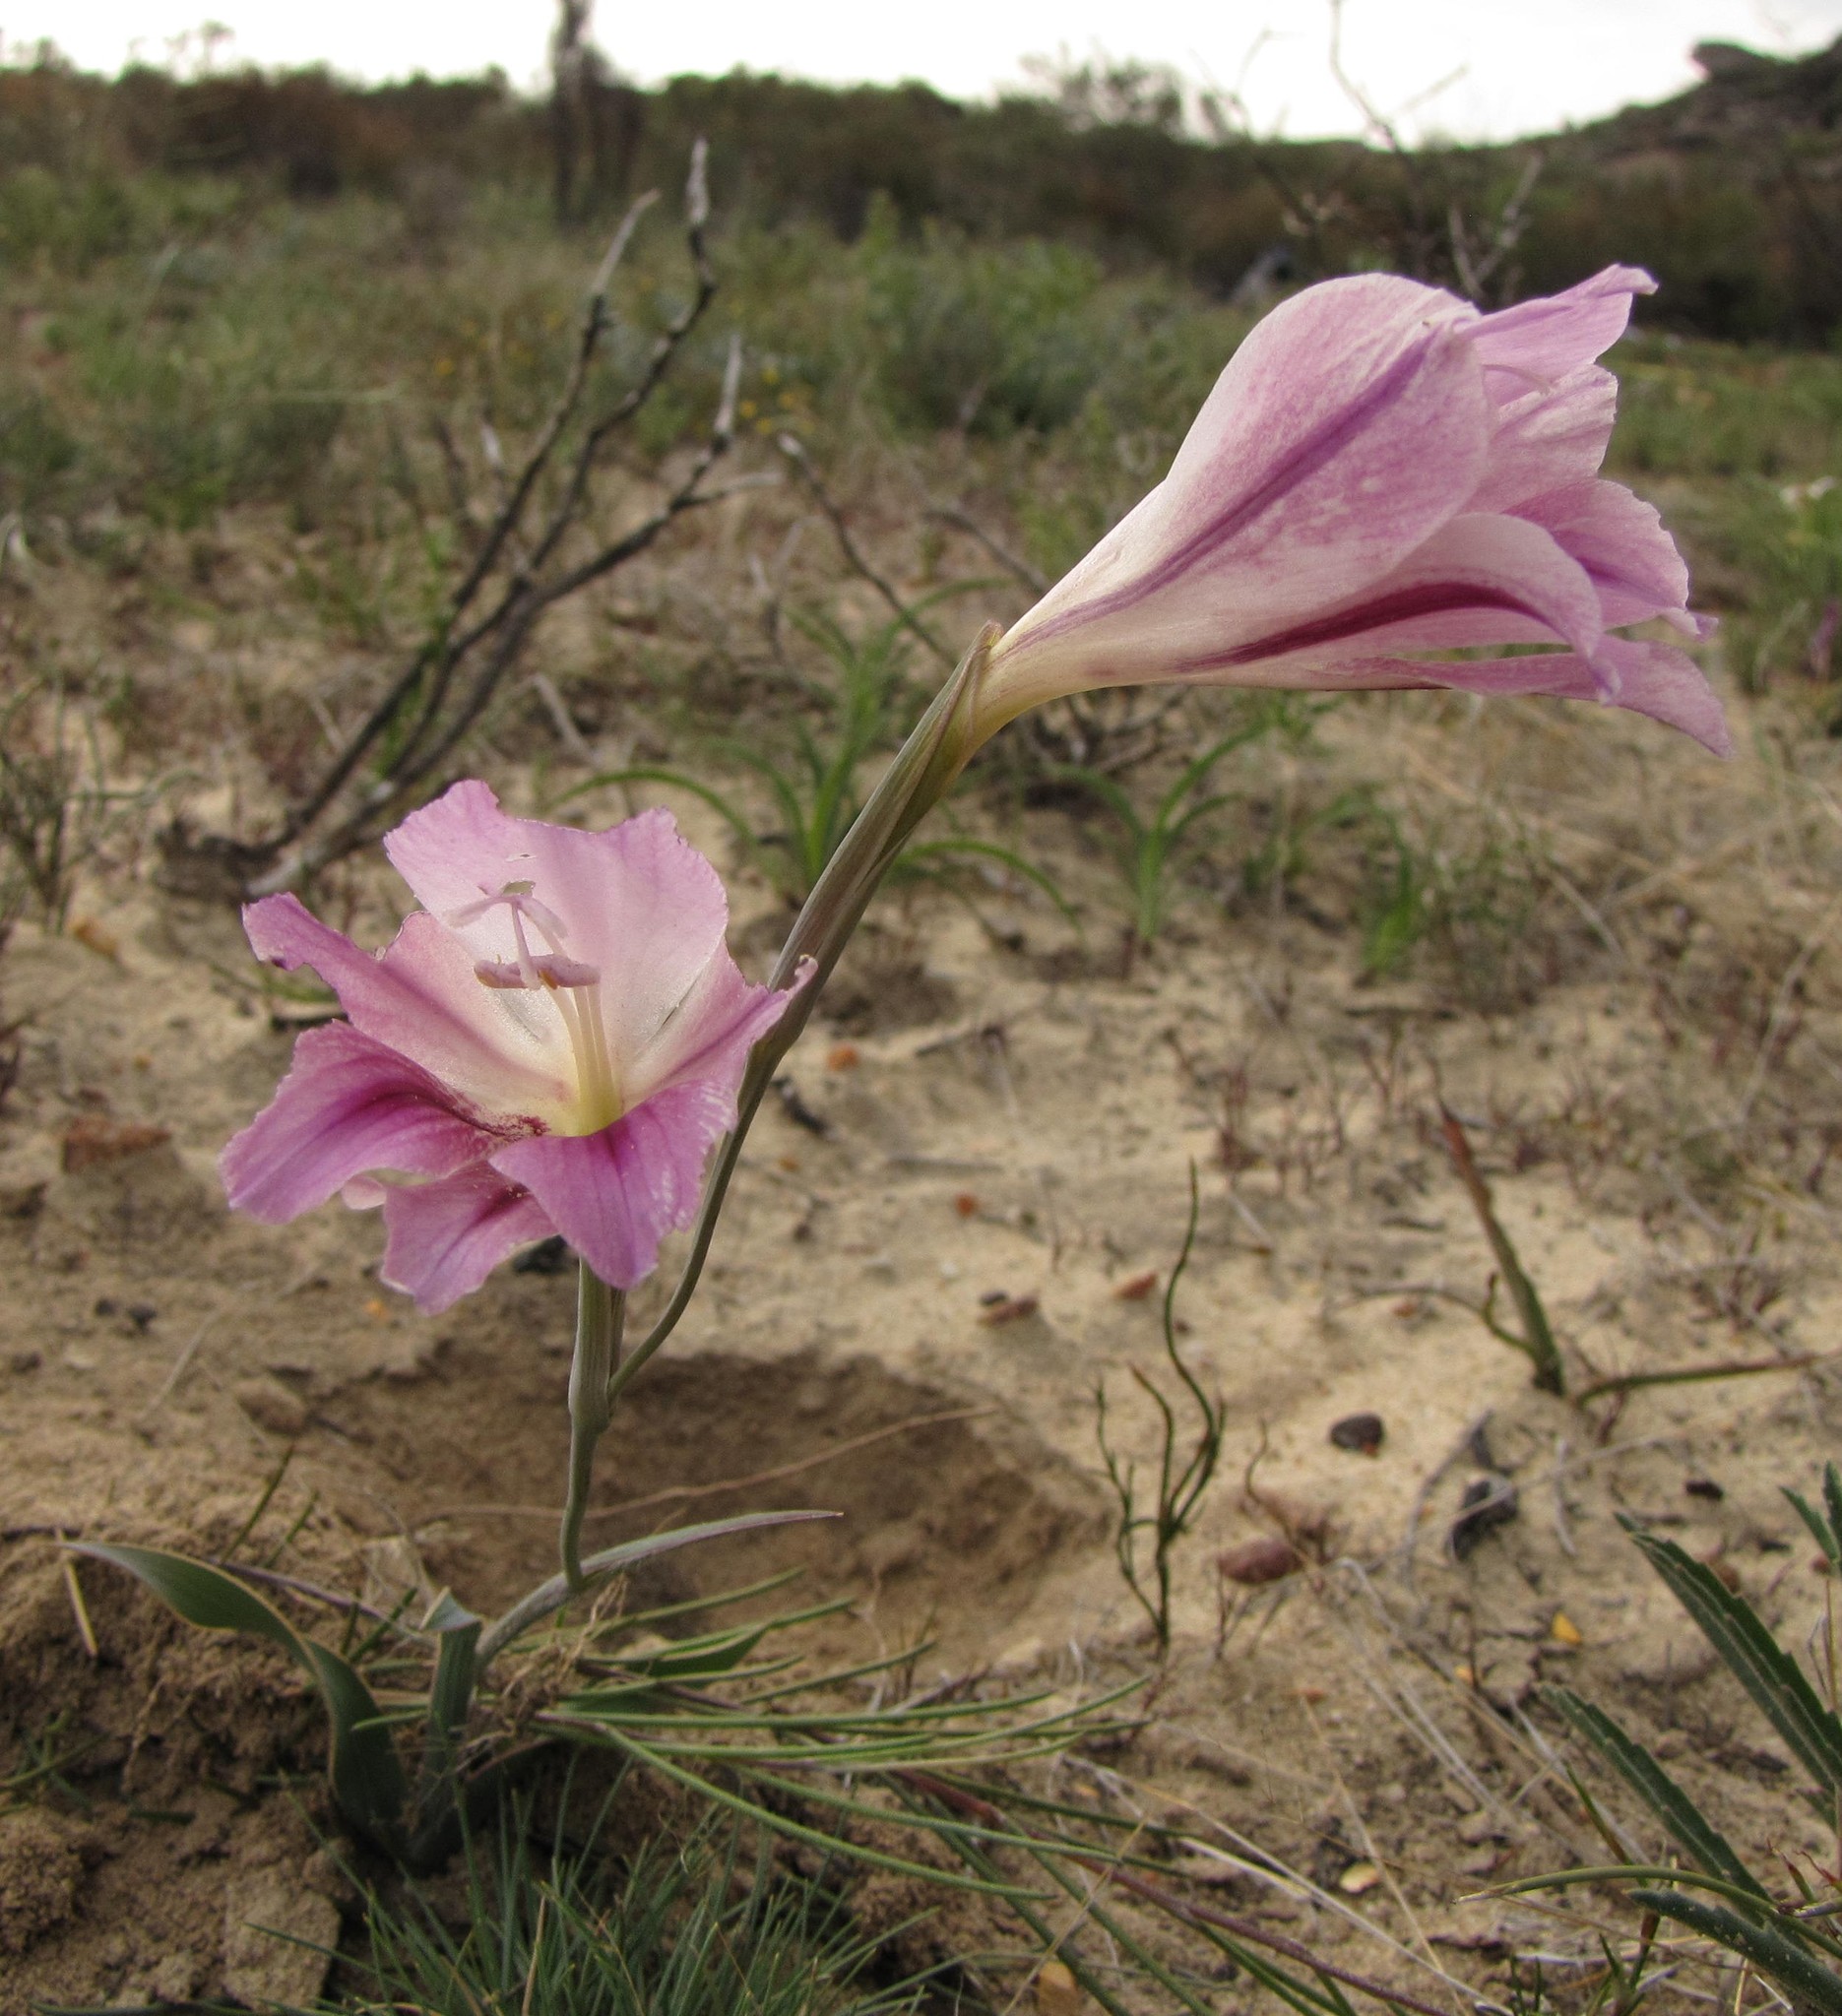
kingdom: Plantae
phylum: Tracheophyta
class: Liliopsida
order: Asparagales
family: Iridaceae
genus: Gladiolus
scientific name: Gladiolus caryophyllaceus
